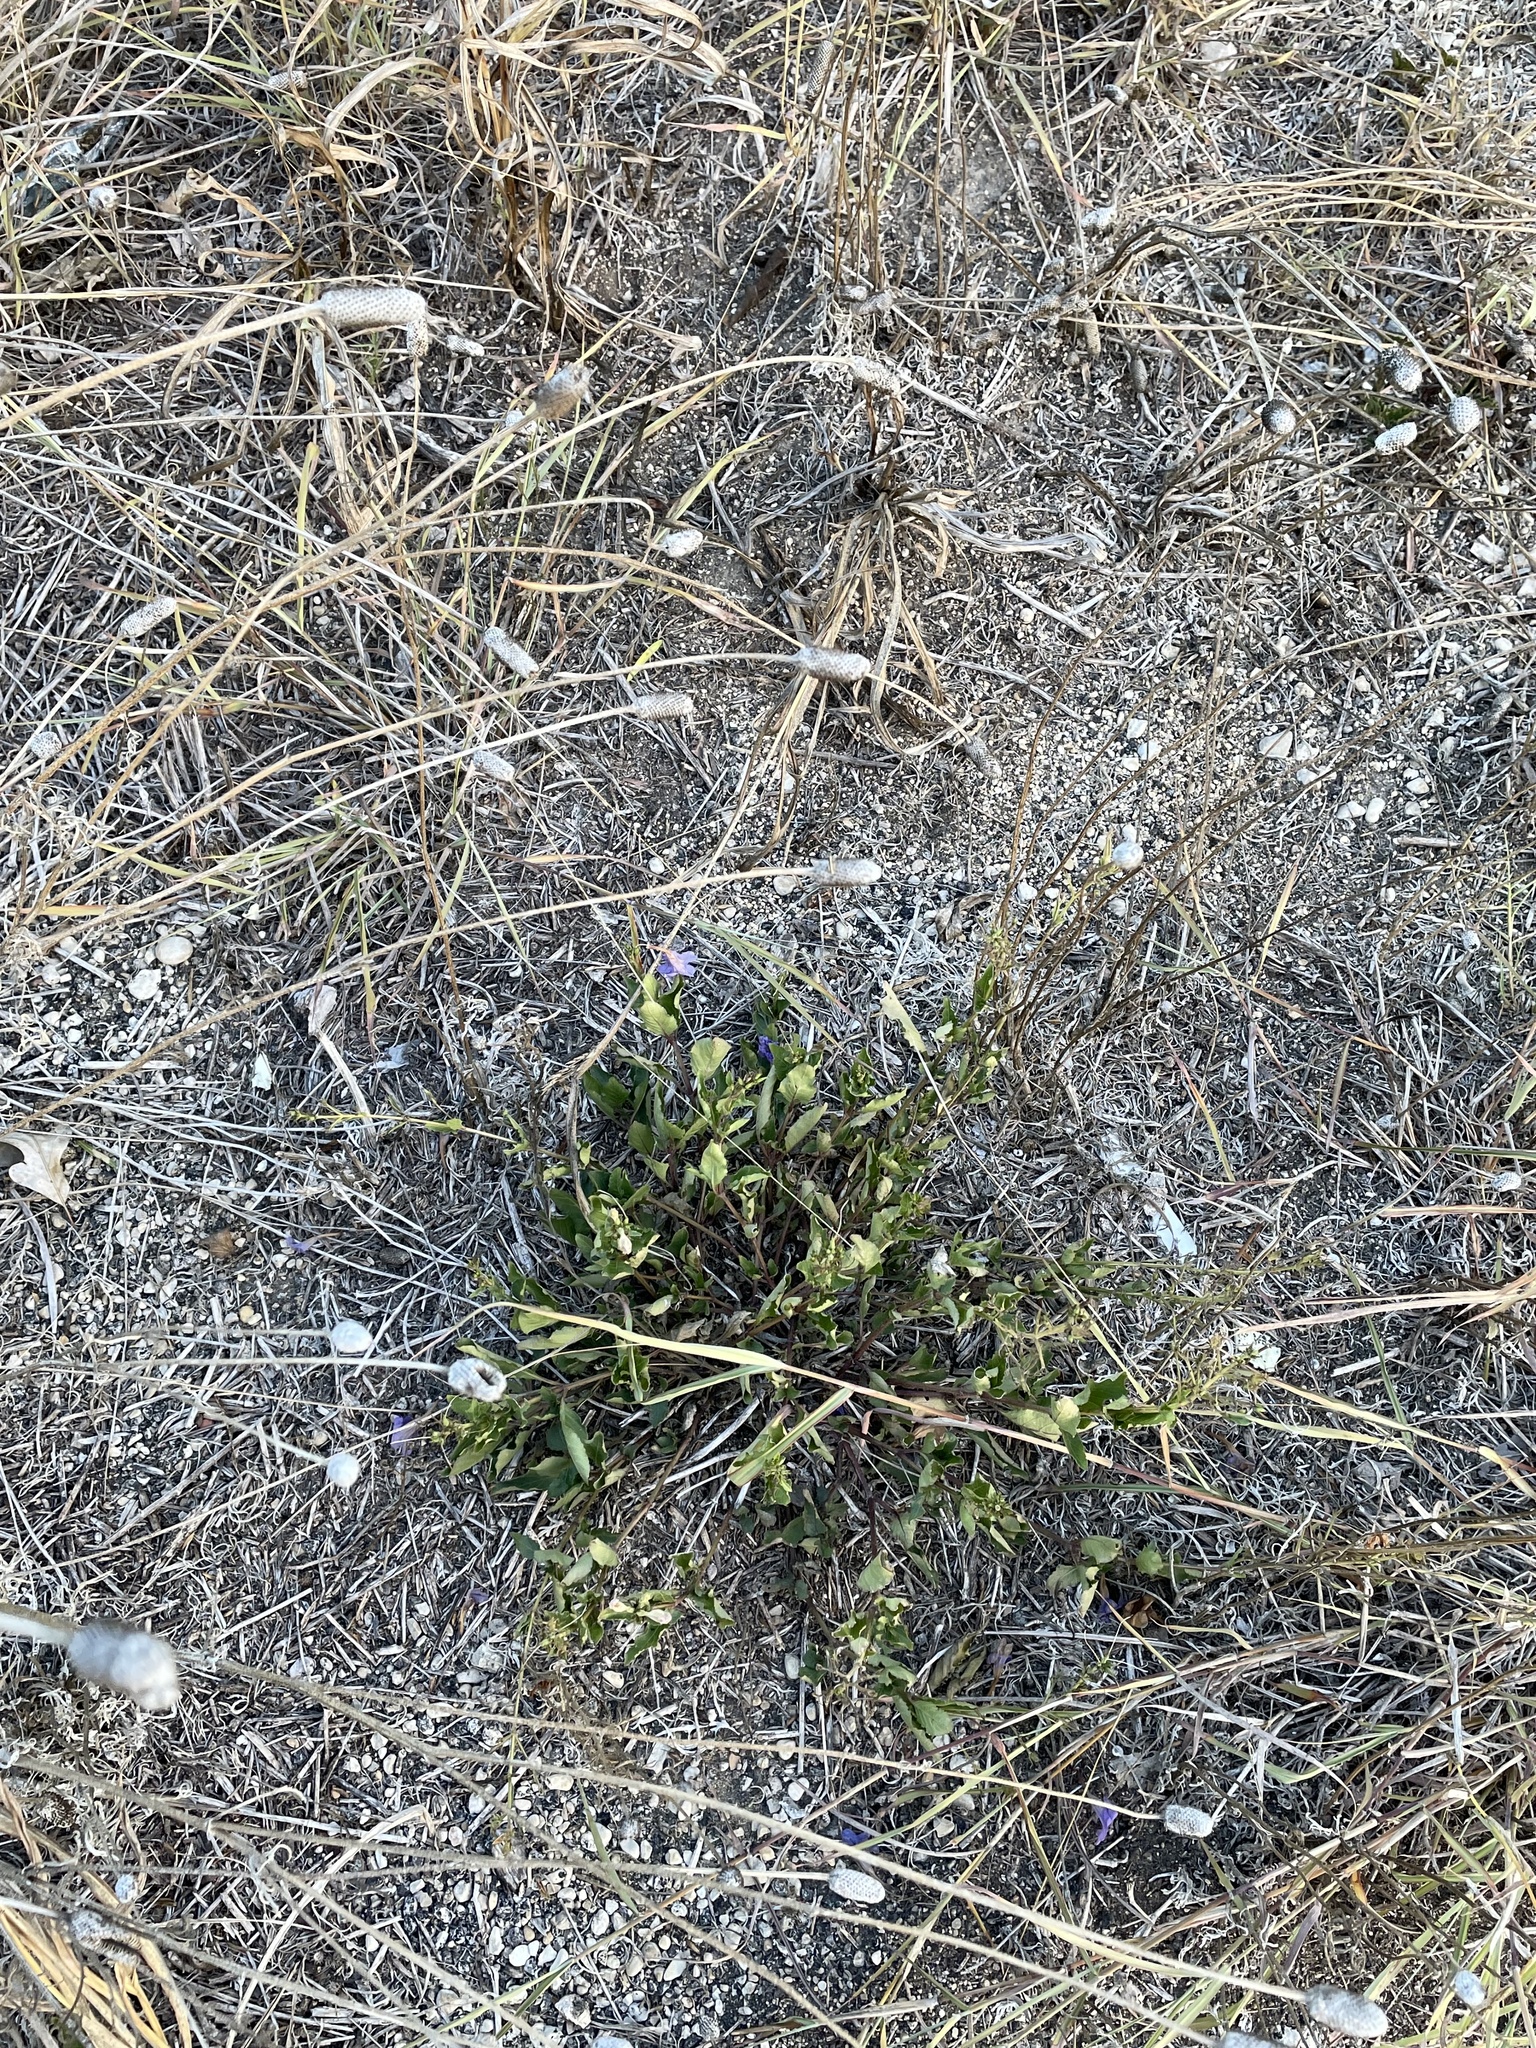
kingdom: Plantae
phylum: Tracheophyta
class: Magnoliopsida
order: Lamiales
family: Acanthaceae
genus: Ruellia
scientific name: Ruellia ciliatiflora
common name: Hairyflower wild petunia
